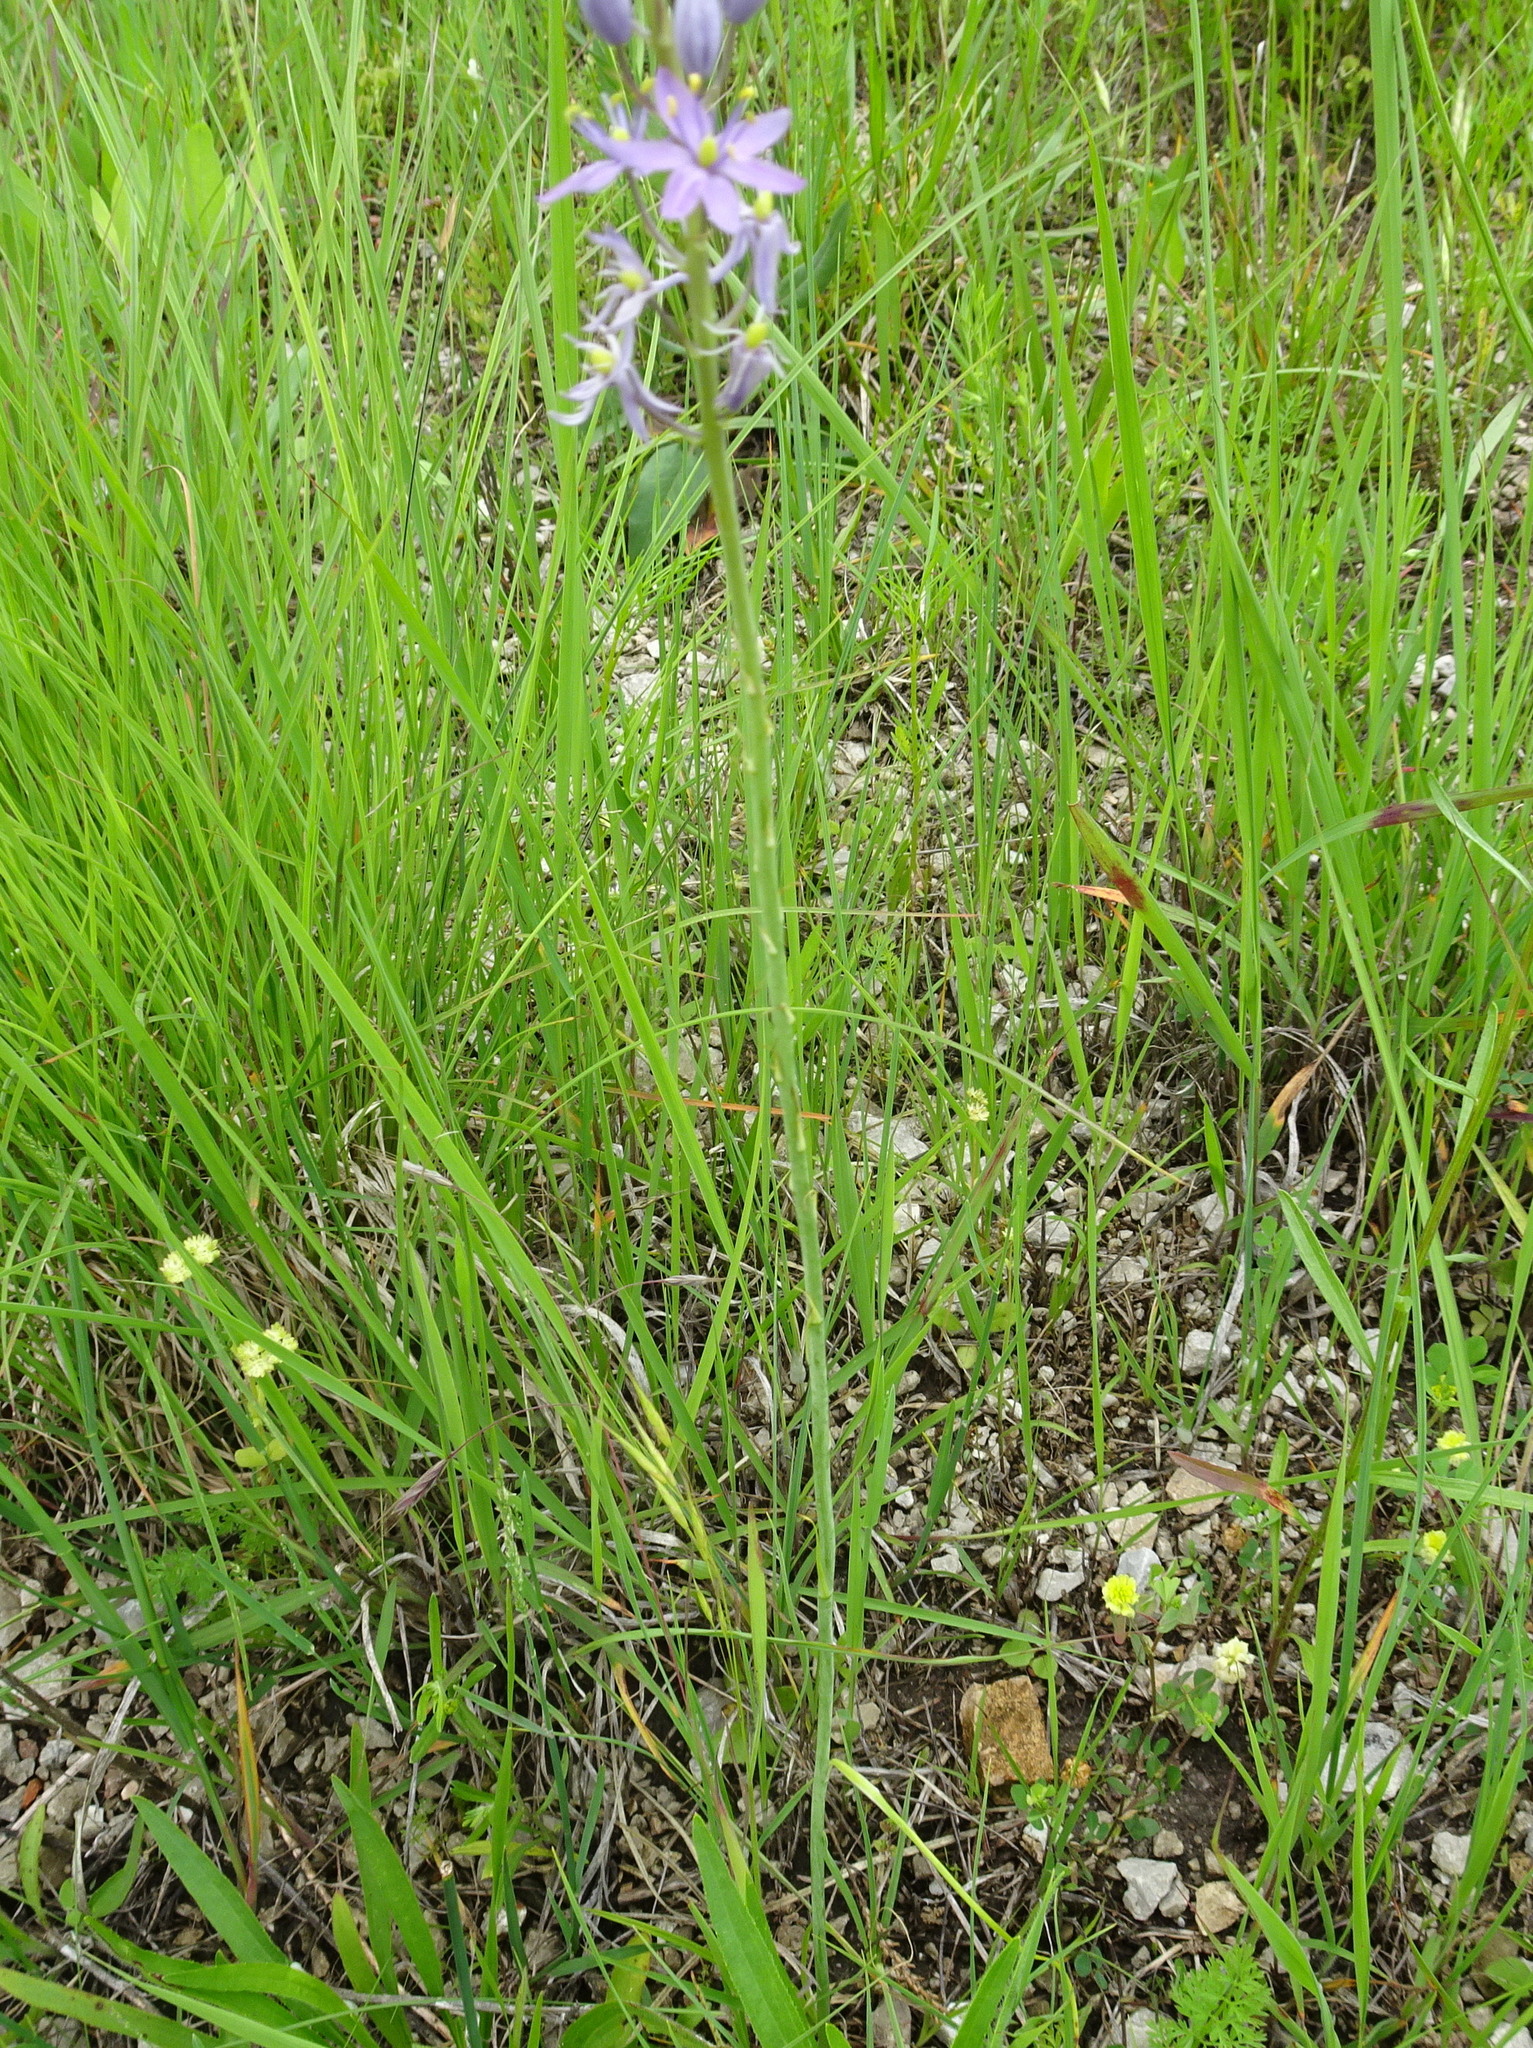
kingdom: Plantae
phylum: Tracheophyta
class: Liliopsida
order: Asparagales
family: Asparagaceae
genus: Camassia
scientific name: Camassia angusta
